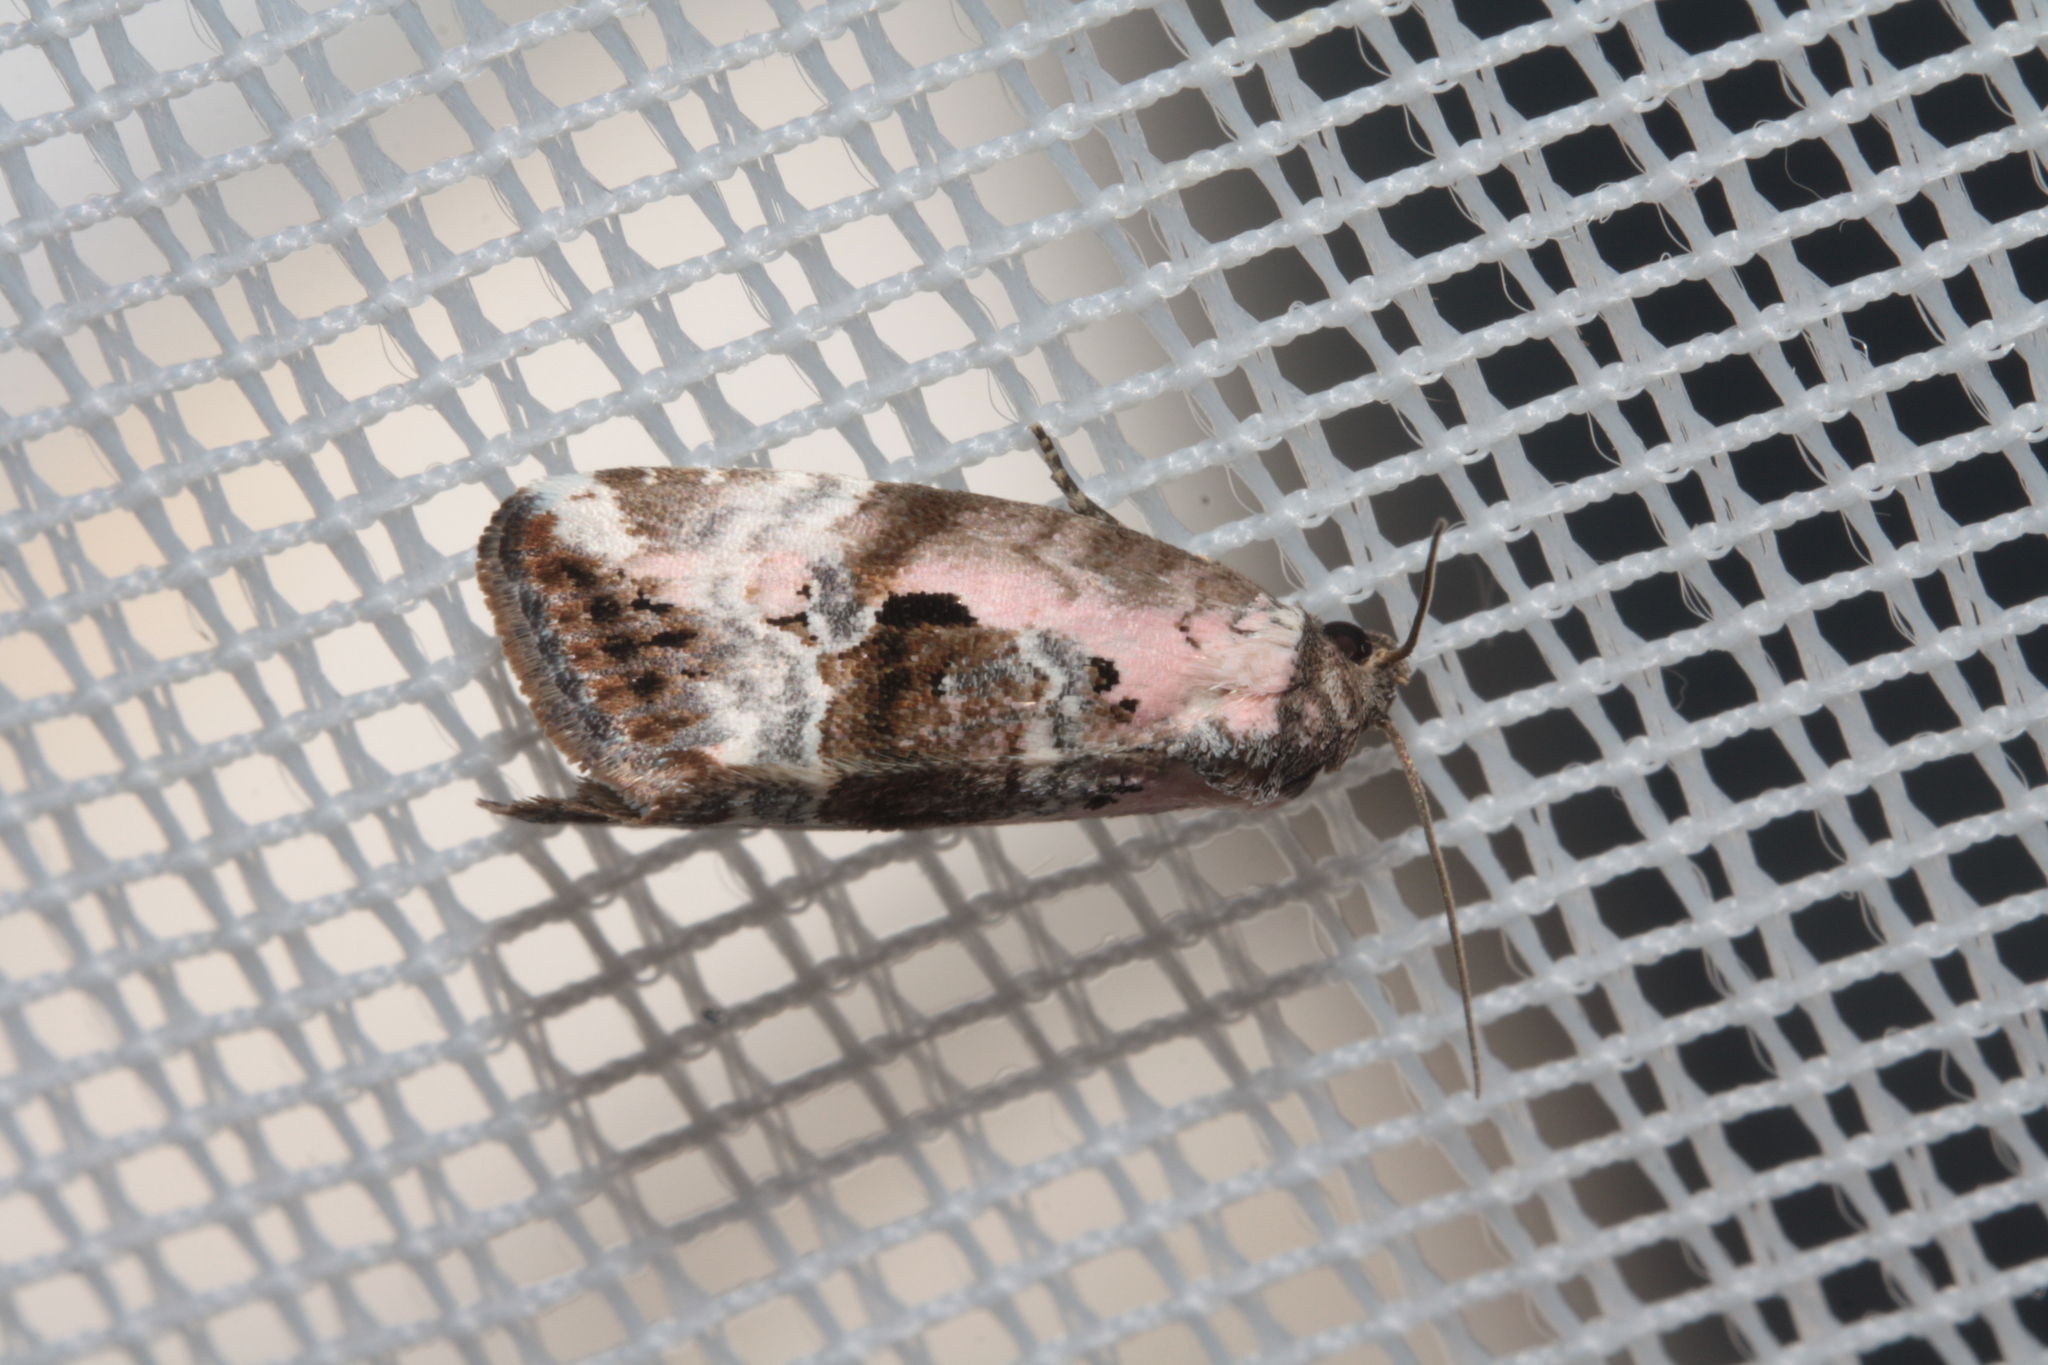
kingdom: Animalia
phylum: Arthropoda
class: Insecta
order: Lepidoptera
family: Noctuidae
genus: Elaphria
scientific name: Elaphria venustula
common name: Rosy marbled
